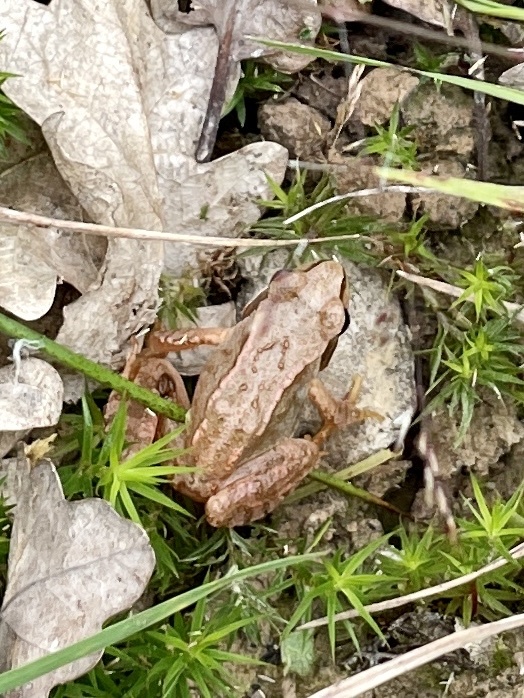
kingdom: Animalia
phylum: Chordata
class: Amphibia
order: Anura
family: Ranidae
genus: Rana
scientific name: Rana temporaria
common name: Common frog
